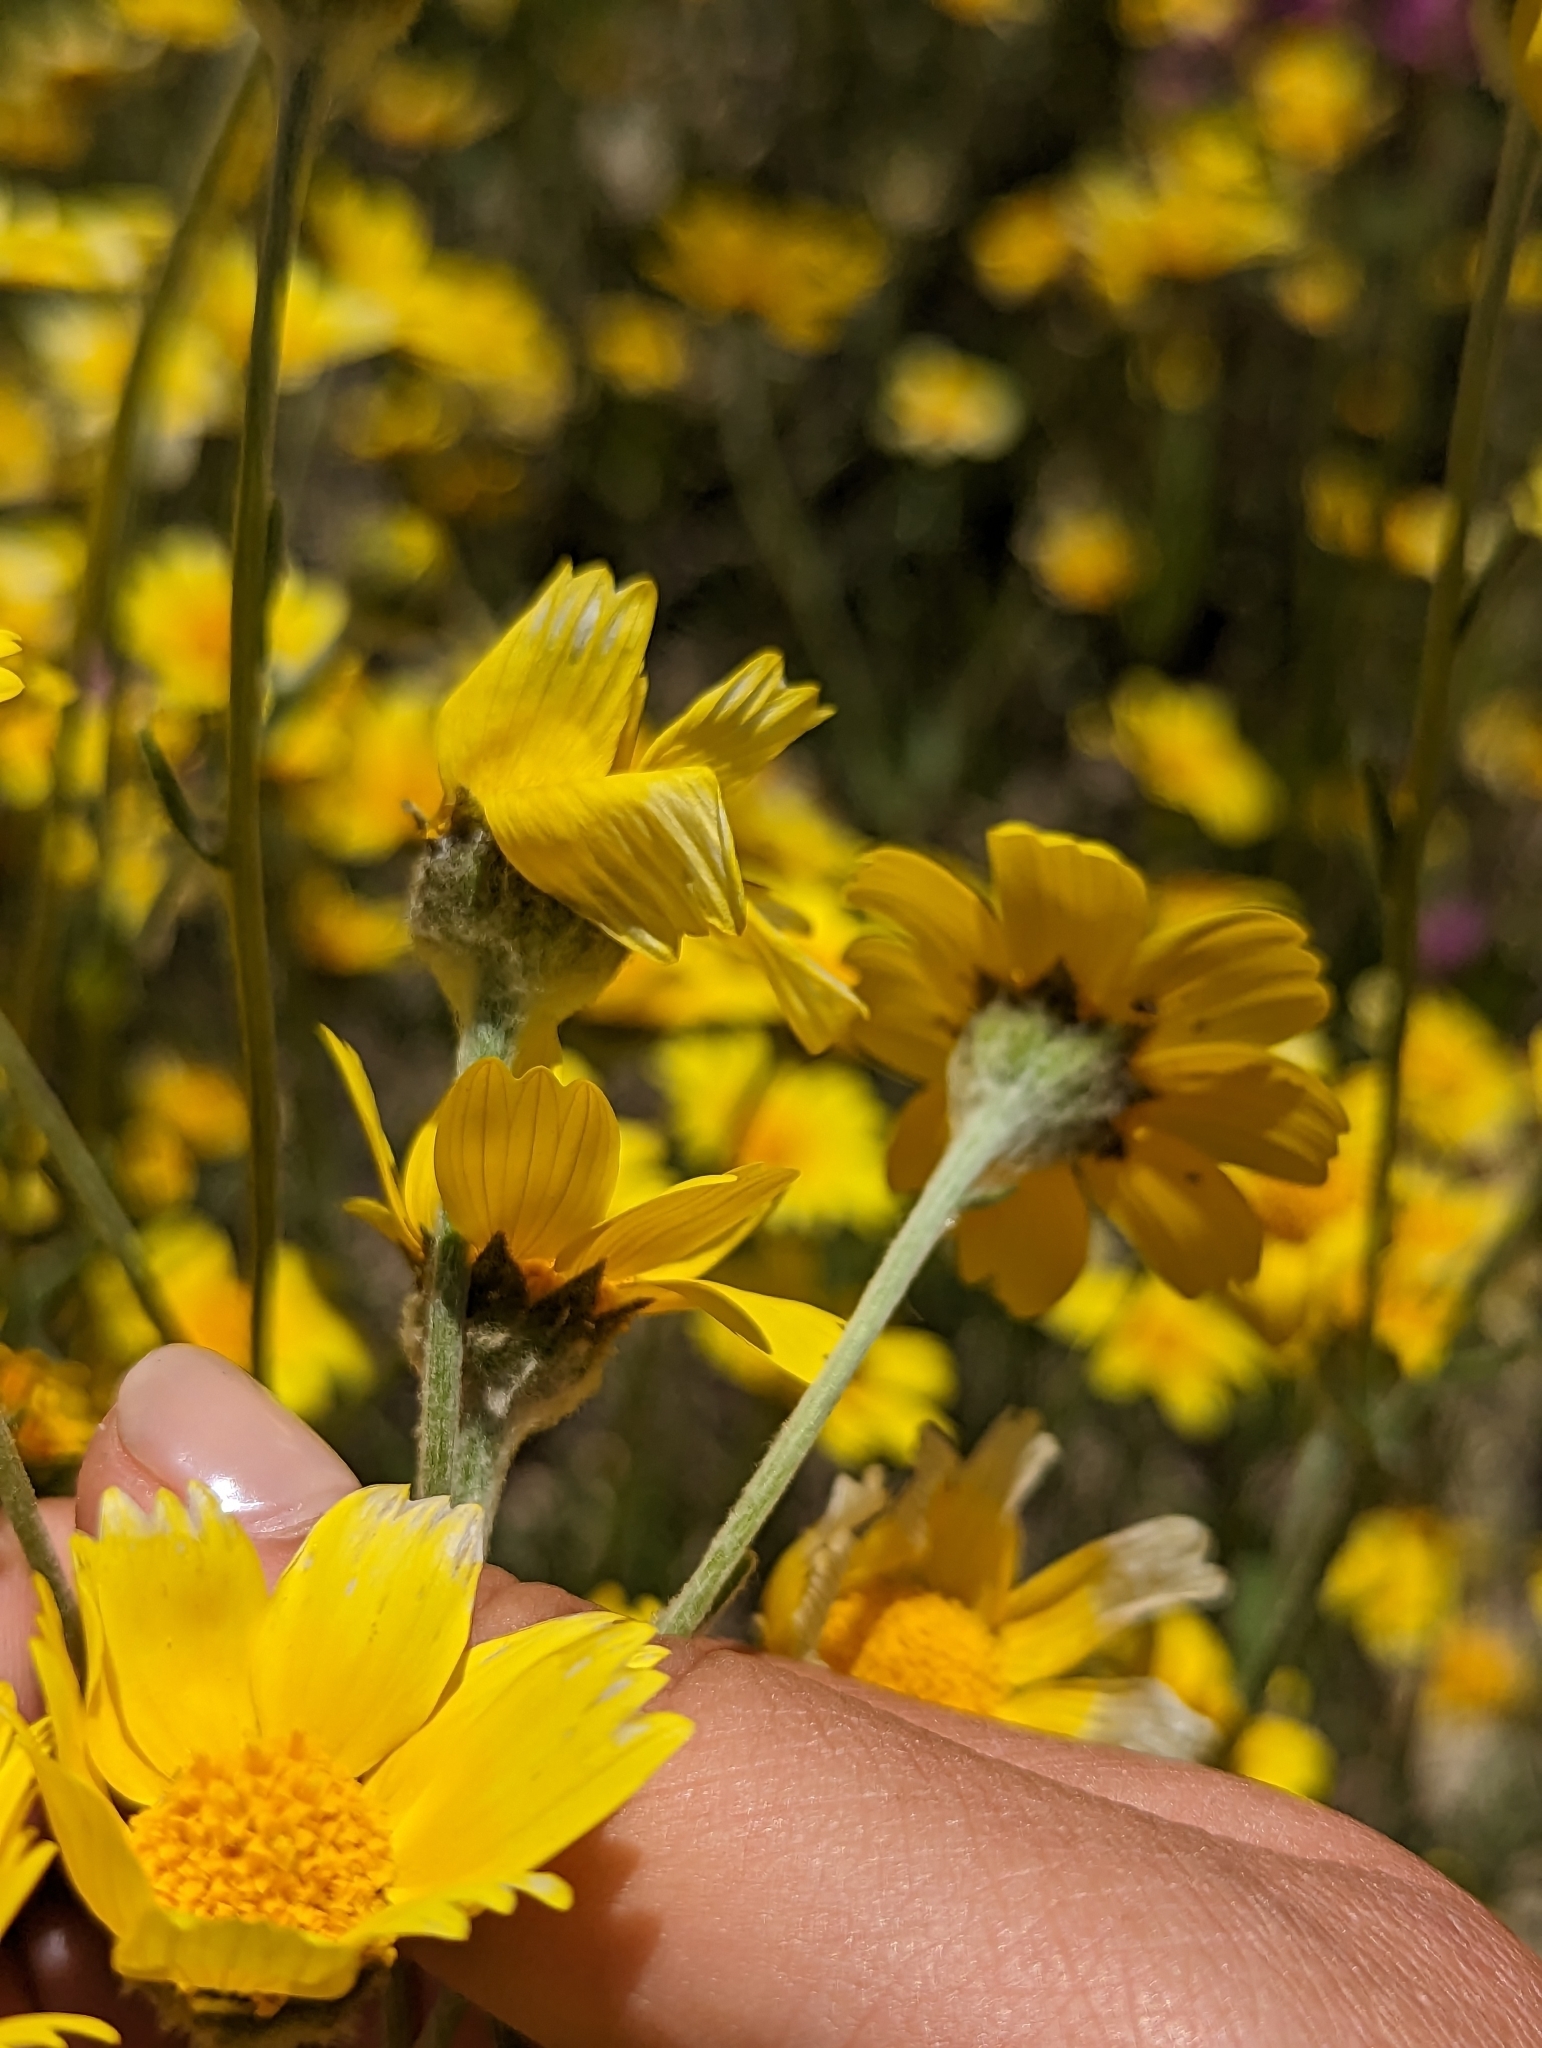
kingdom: Plantae
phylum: Tracheophyta
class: Magnoliopsida
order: Asterales
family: Asteraceae
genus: Monolopia
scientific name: Monolopia lanceolata
